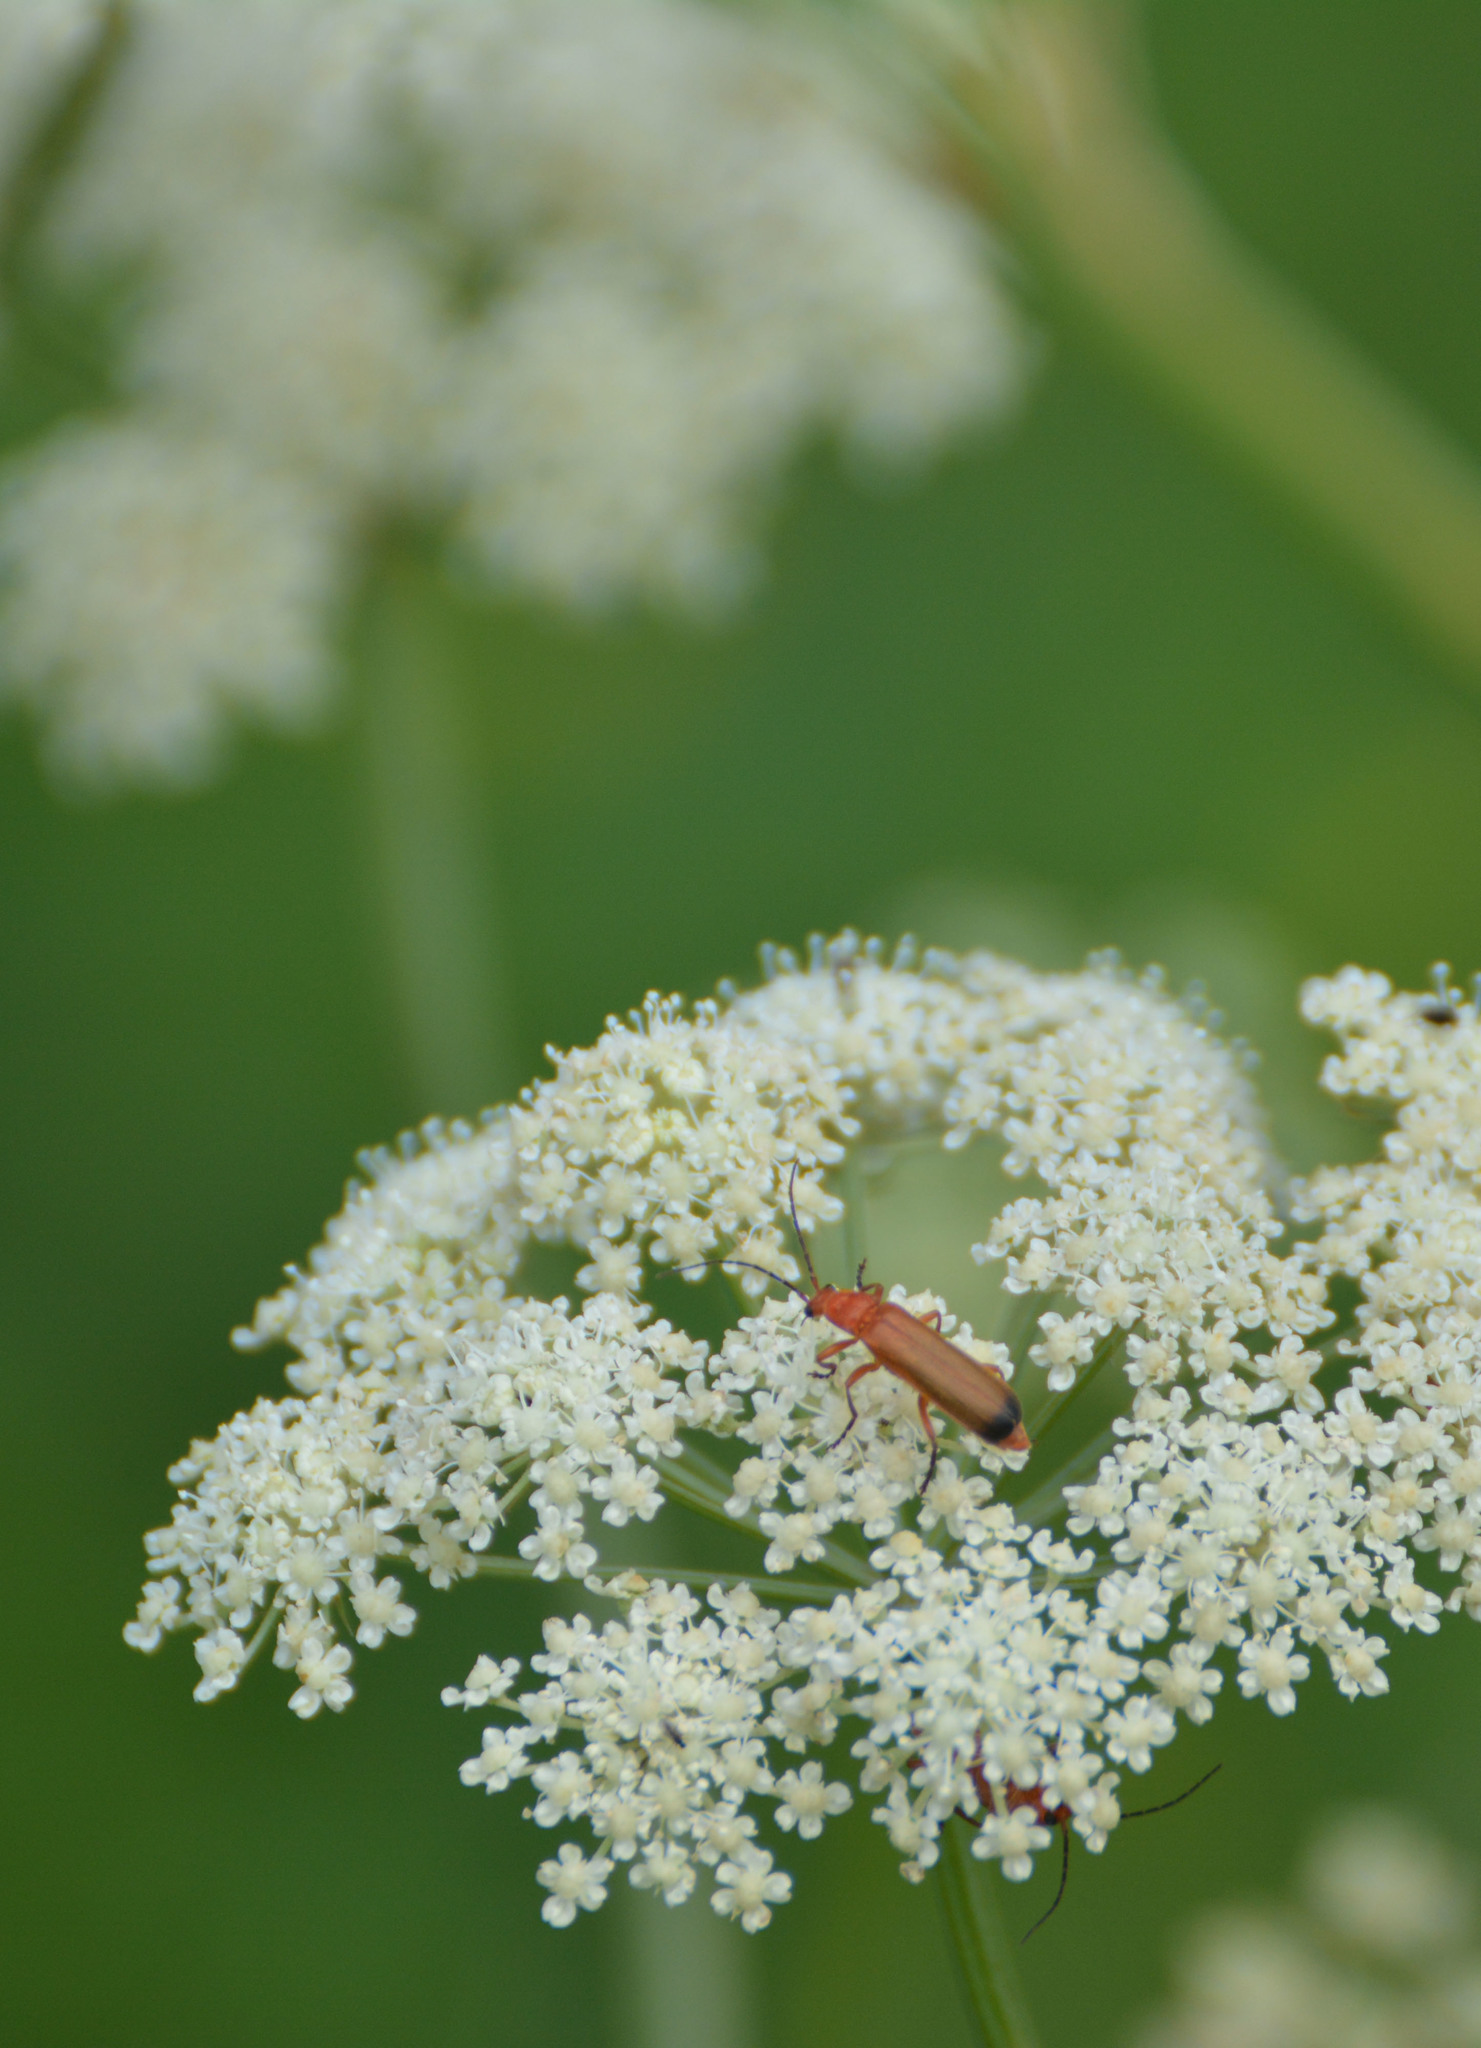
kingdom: Animalia
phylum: Arthropoda
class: Insecta
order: Coleoptera
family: Cantharidae
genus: Rhagonycha
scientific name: Rhagonycha fulva
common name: Common red soldier beetle
